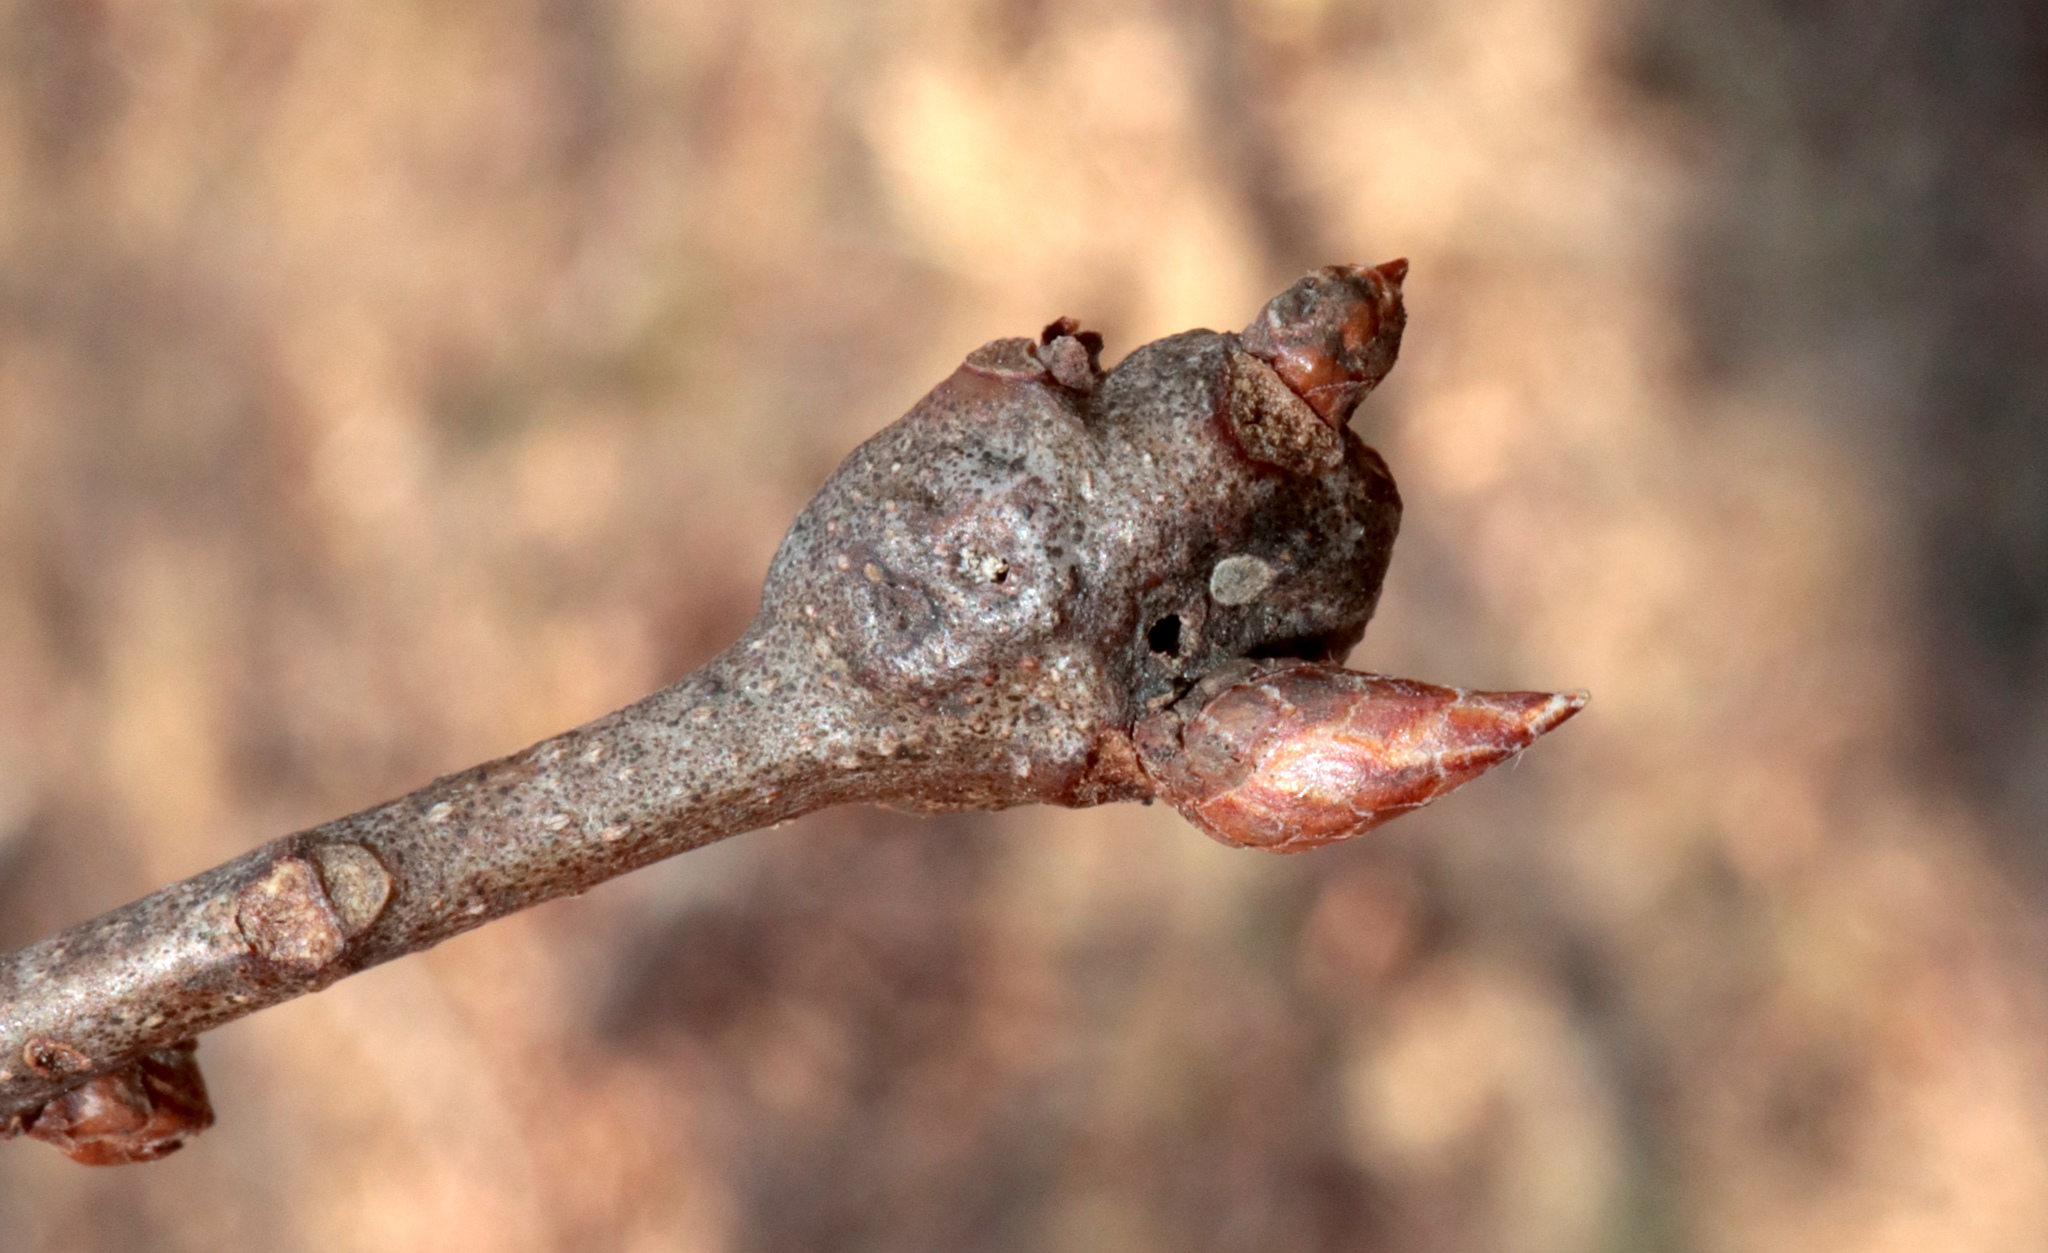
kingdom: Animalia
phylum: Arthropoda
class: Insecta
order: Hymenoptera
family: Cynipidae
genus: Zapatella
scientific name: Zapatella quercusphellos
